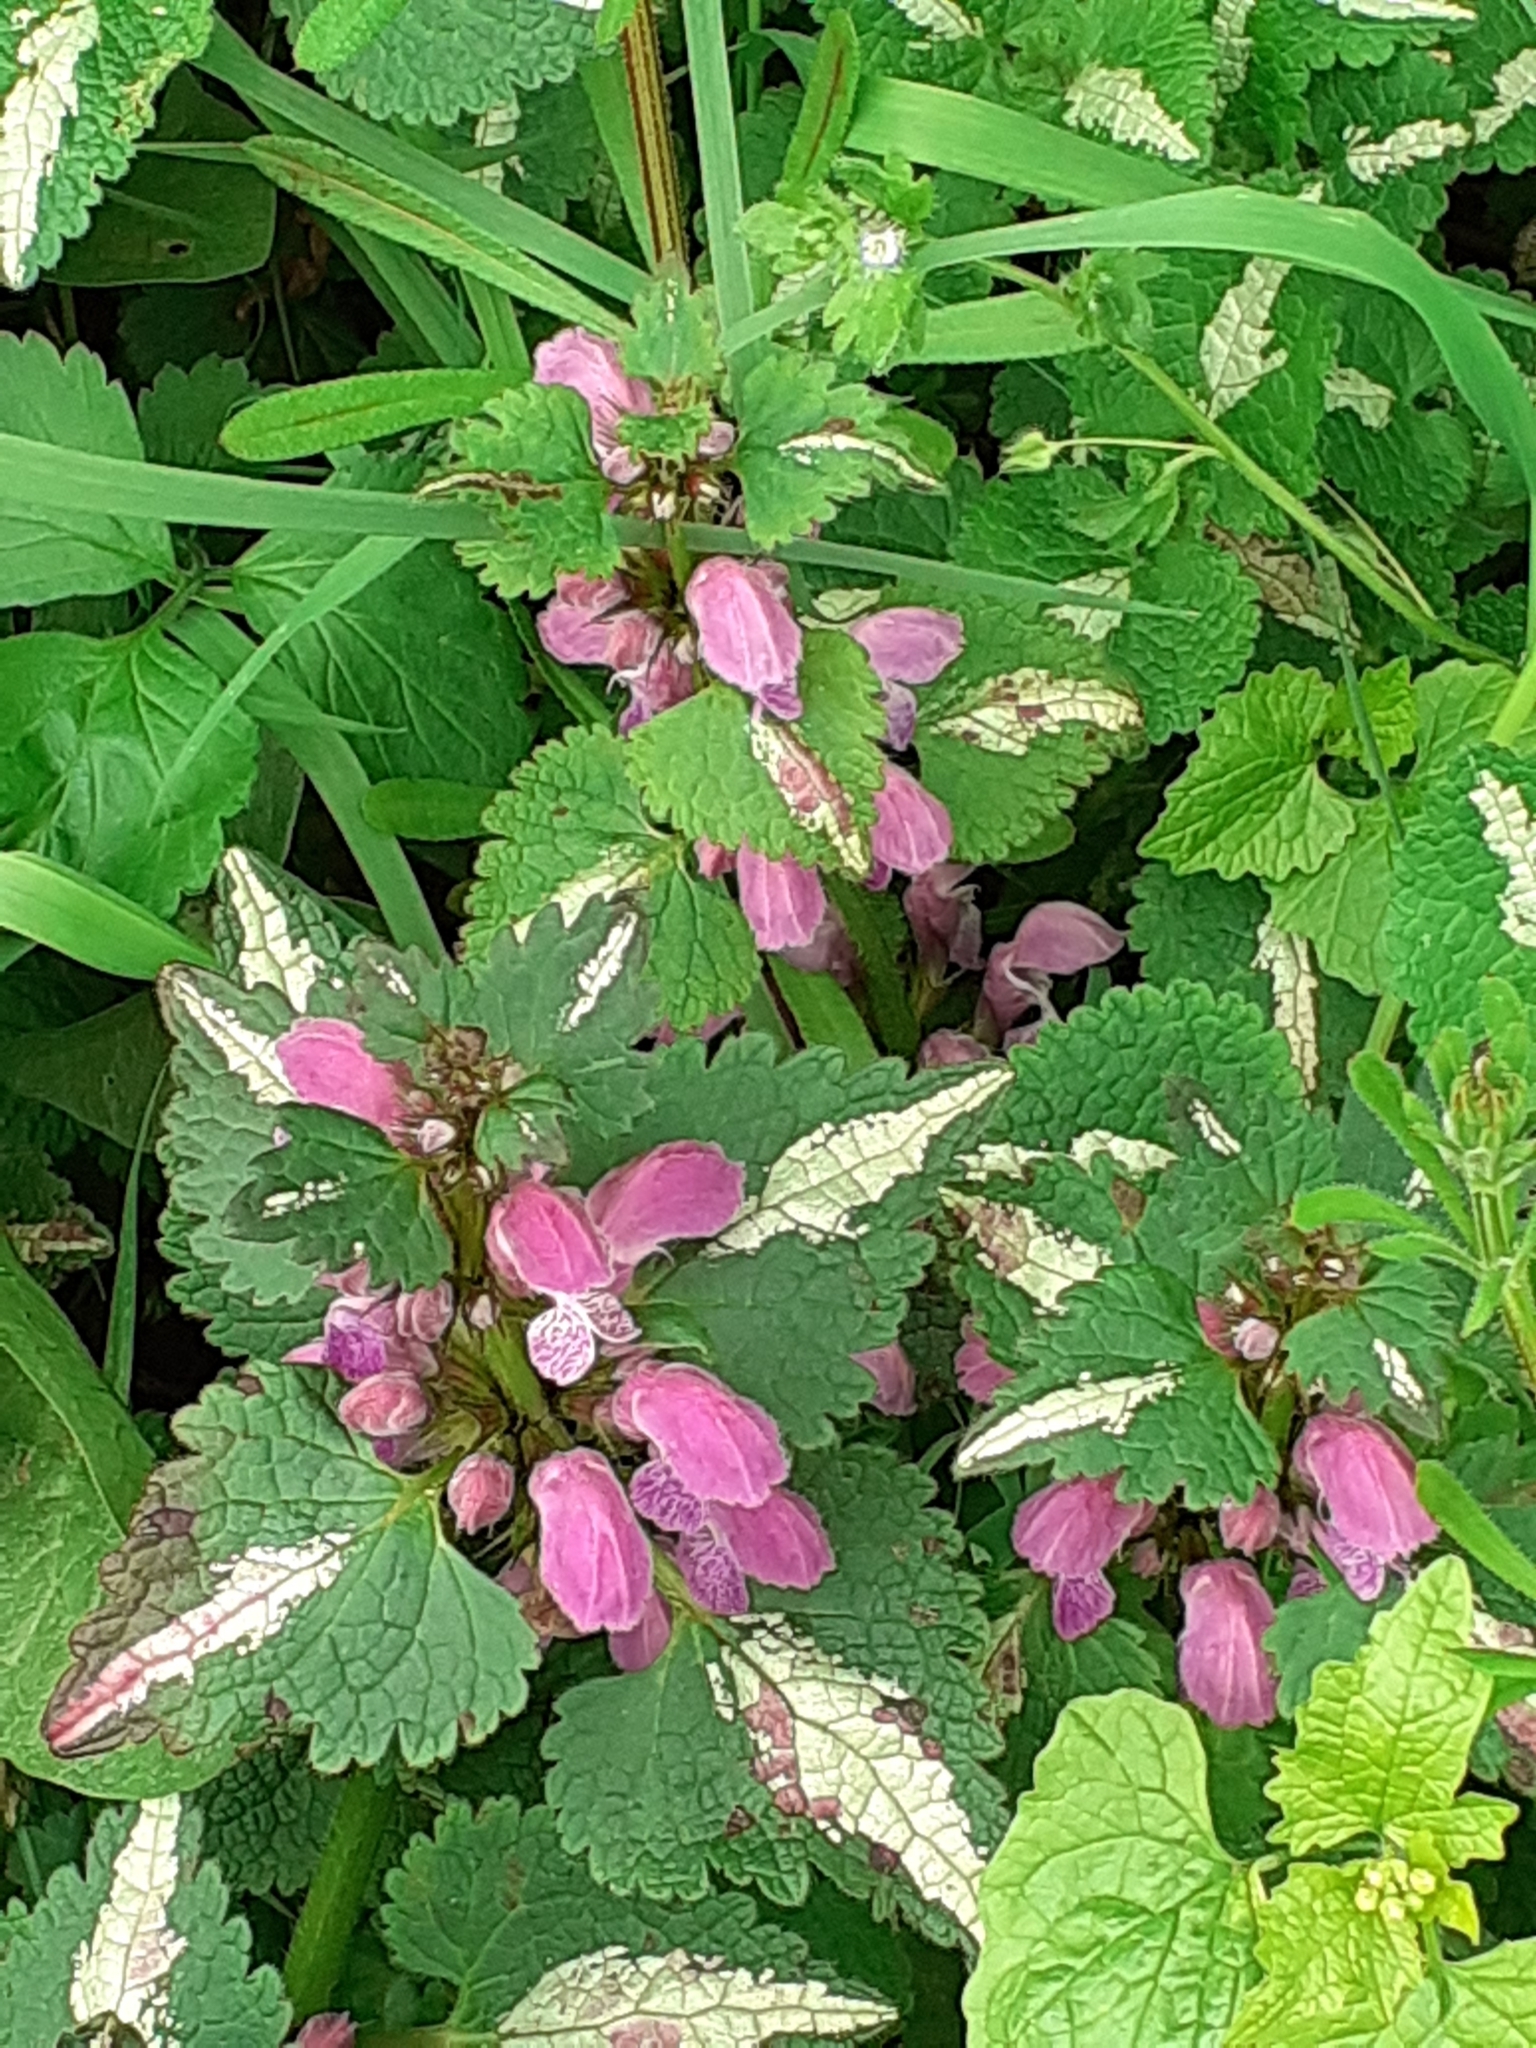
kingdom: Plantae
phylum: Tracheophyta
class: Magnoliopsida
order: Lamiales
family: Lamiaceae
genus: Lamium
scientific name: Lamium purpureum
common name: Red dead-nettle
